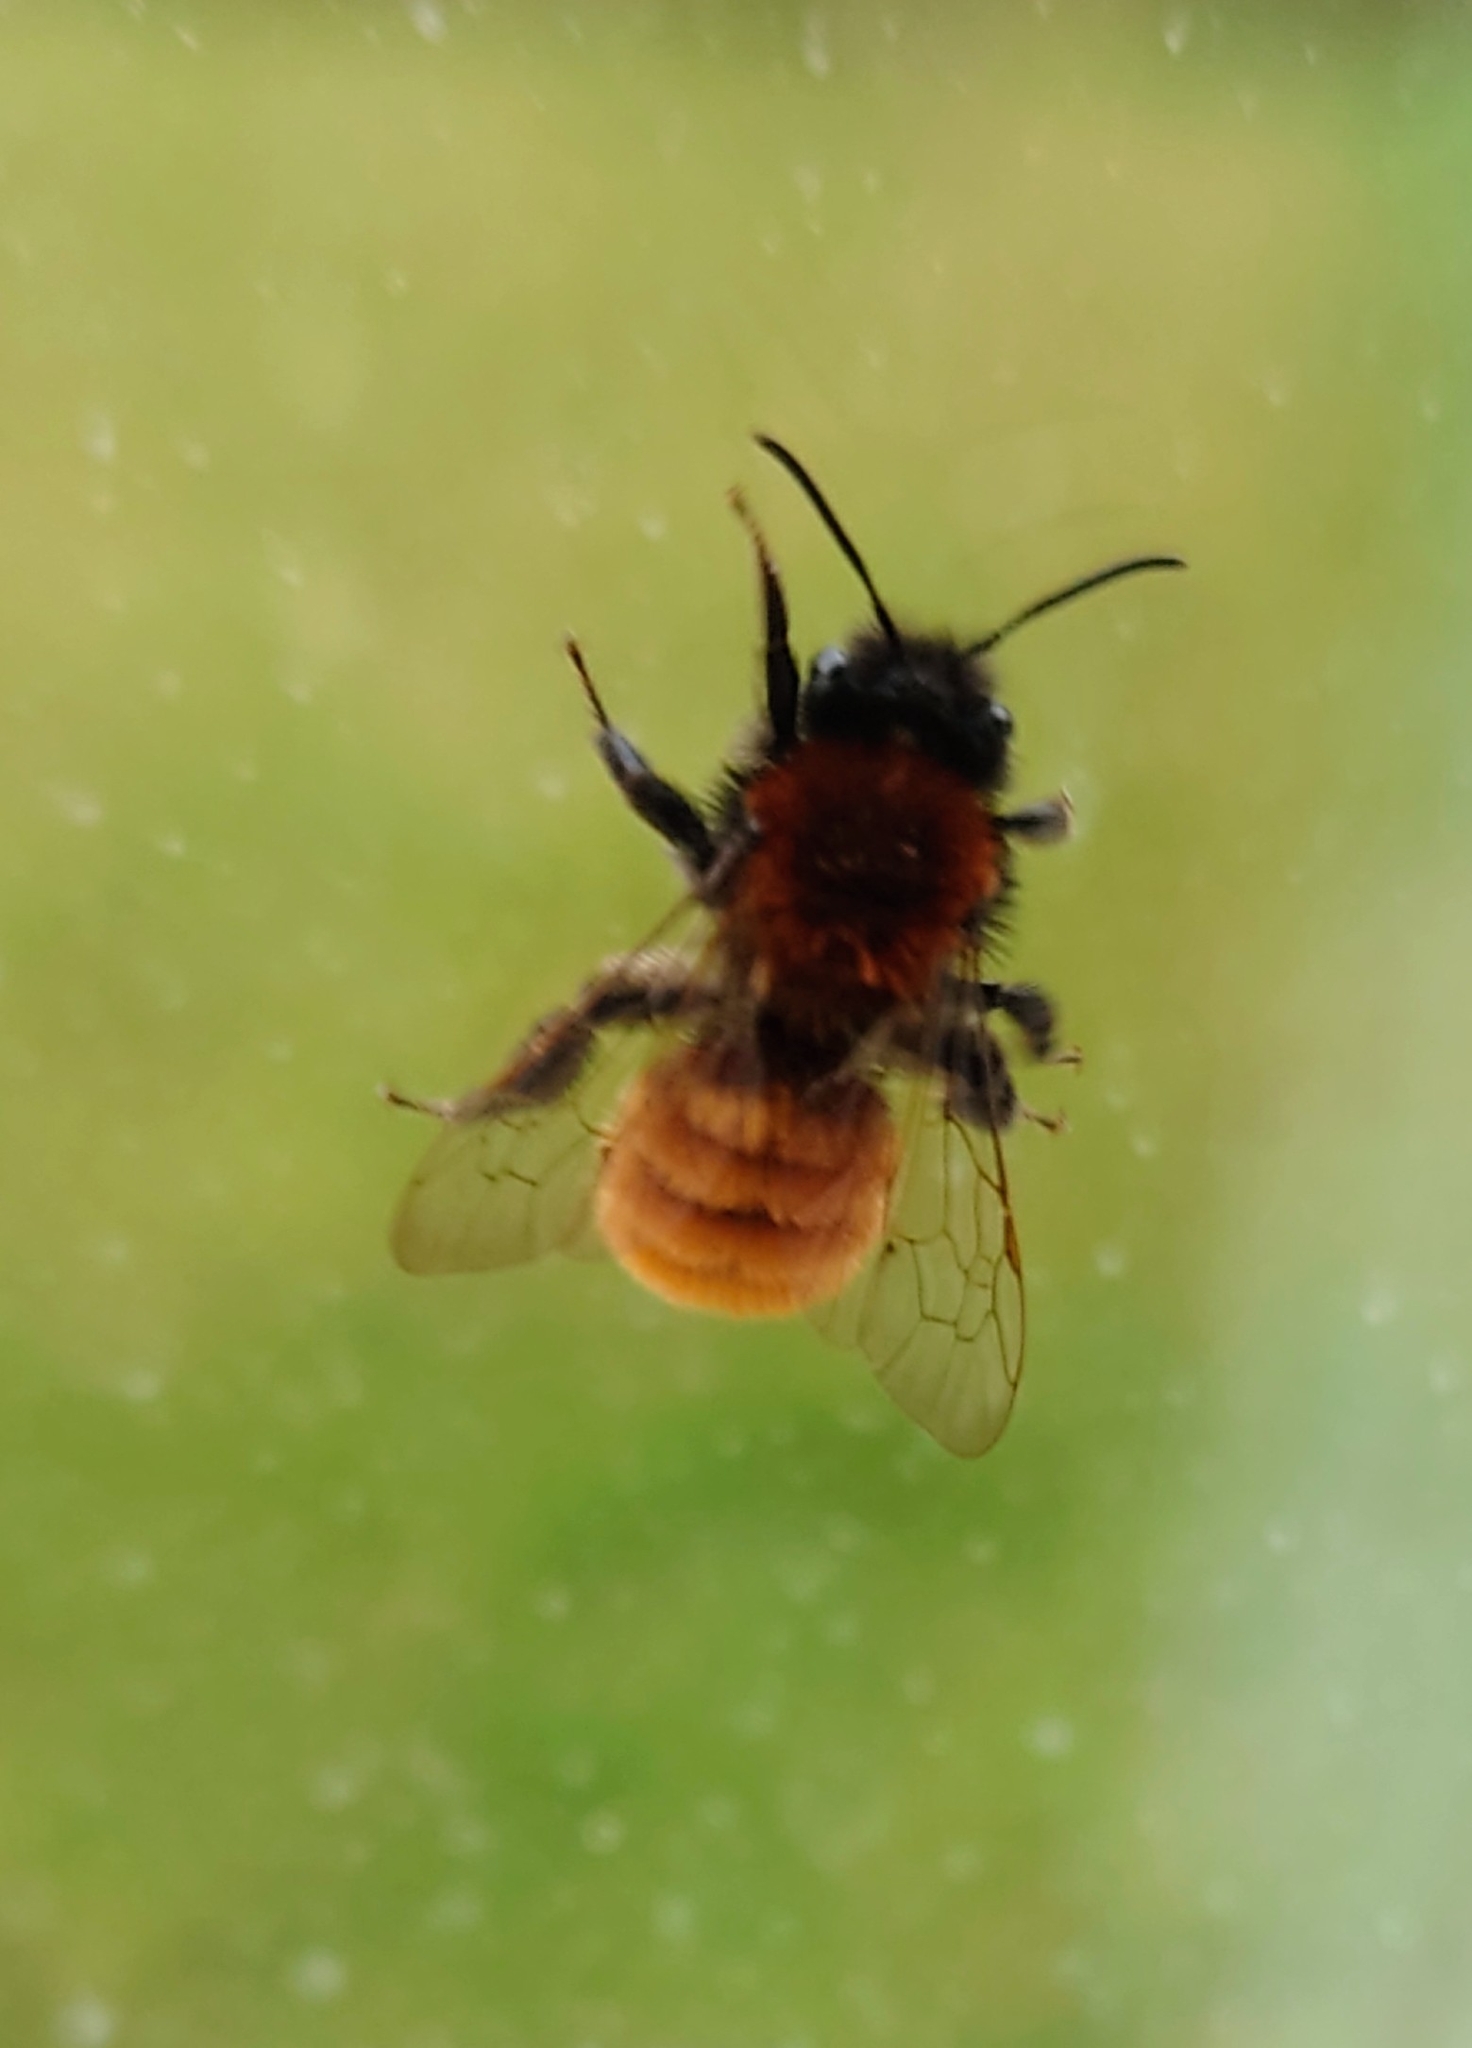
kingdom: Animalia
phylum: Arthropoda
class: Insecta
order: Hymenoptera
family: Andrenidae
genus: Andrena
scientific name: Andrena fulva
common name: Tawny mining bee
